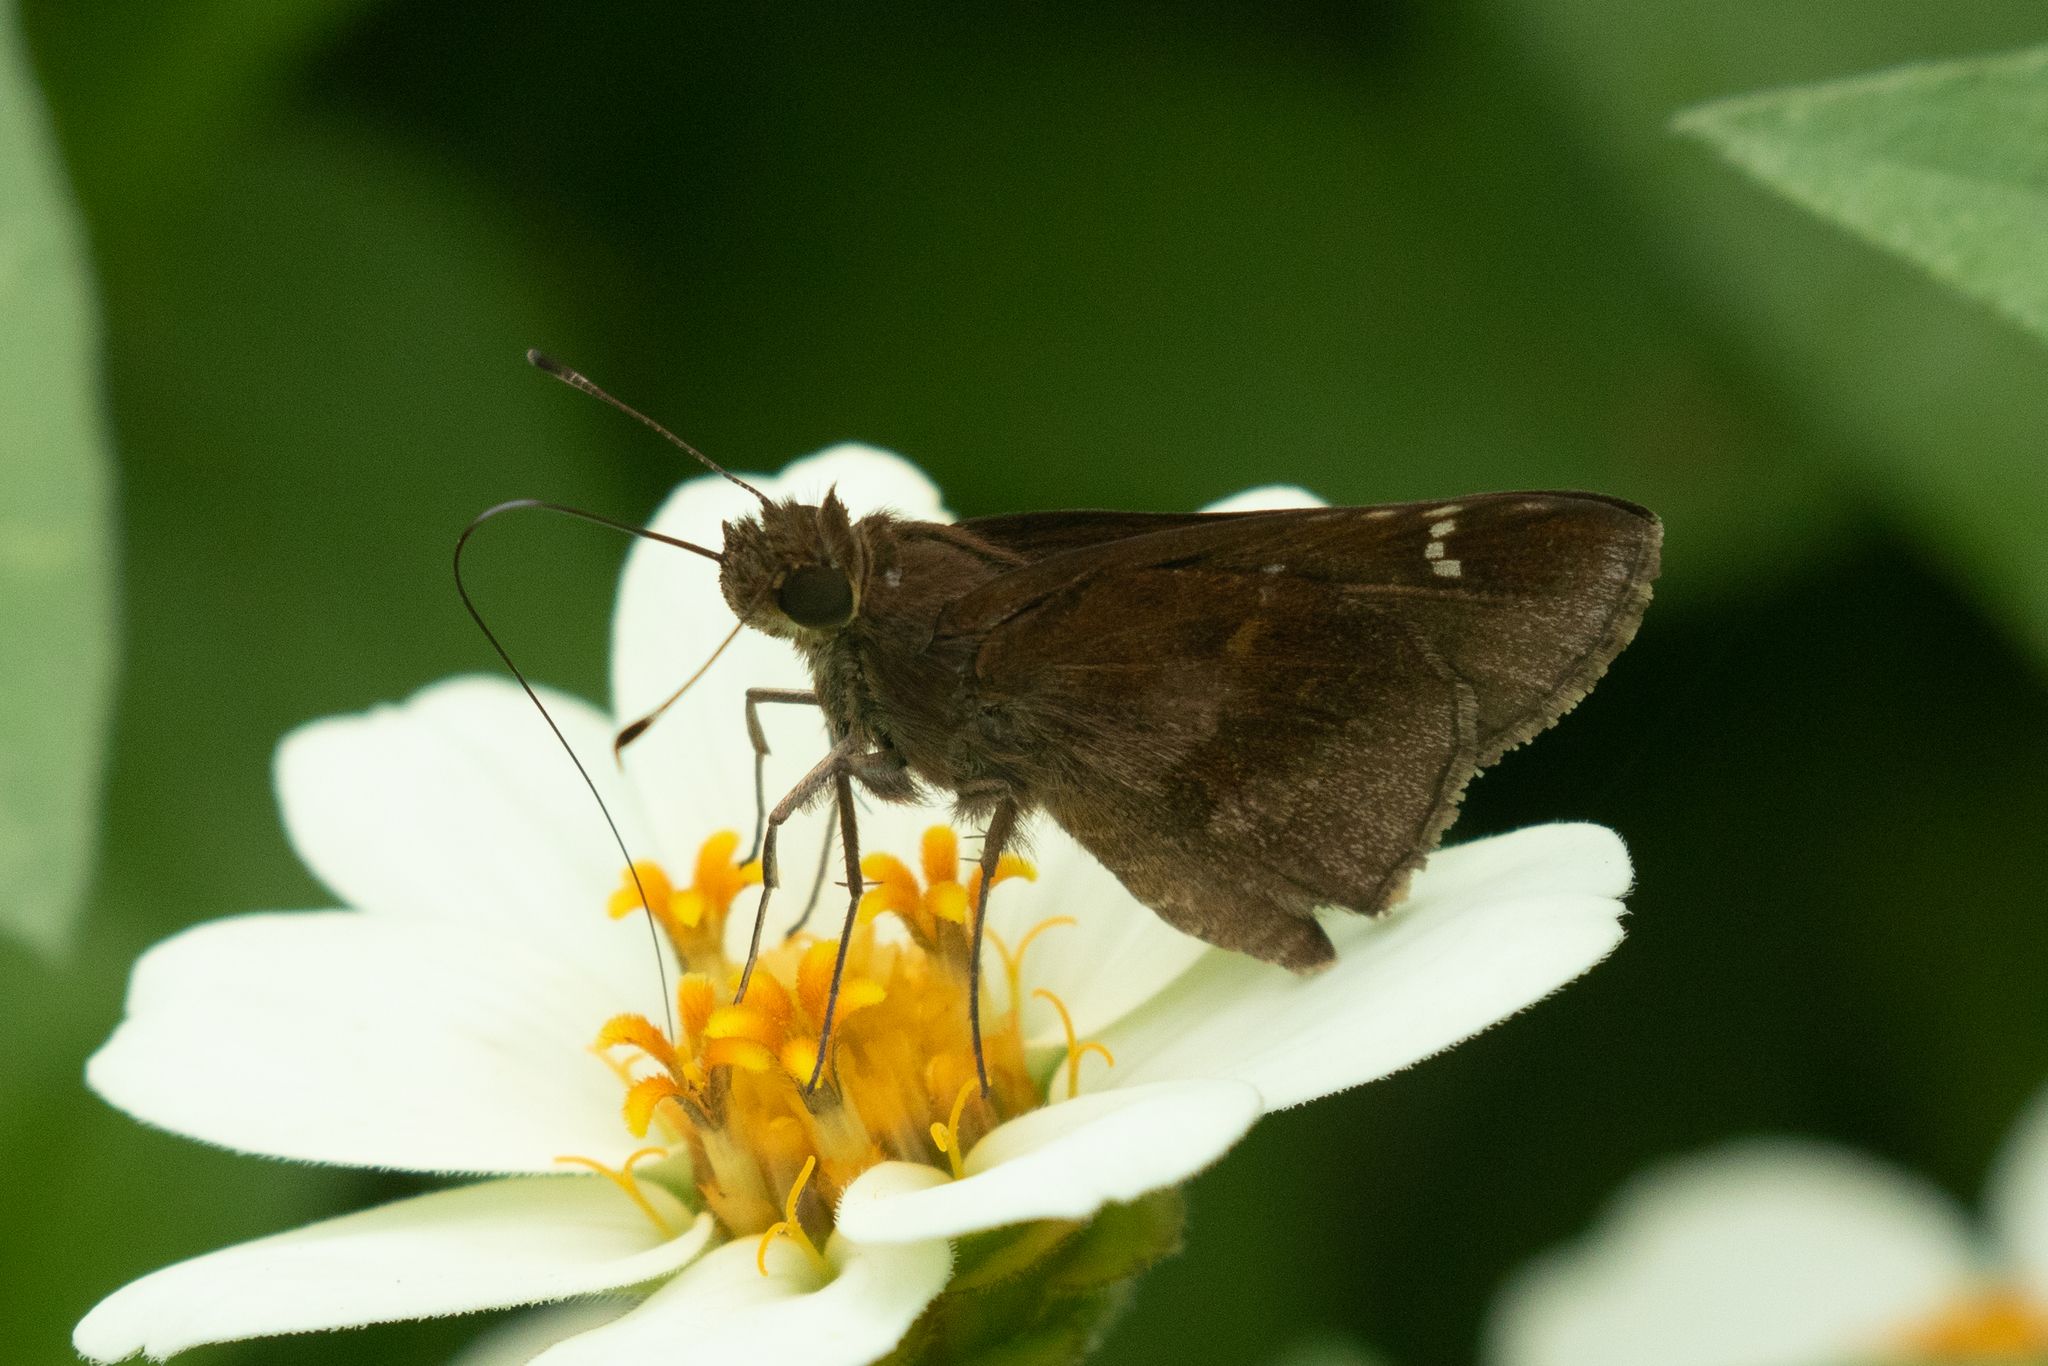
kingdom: Animalia
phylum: Arthropoda
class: Insecta
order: Lepidoptera
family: Hesperiidae
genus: Lerema
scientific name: Lerema accius
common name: Clouded skipper
